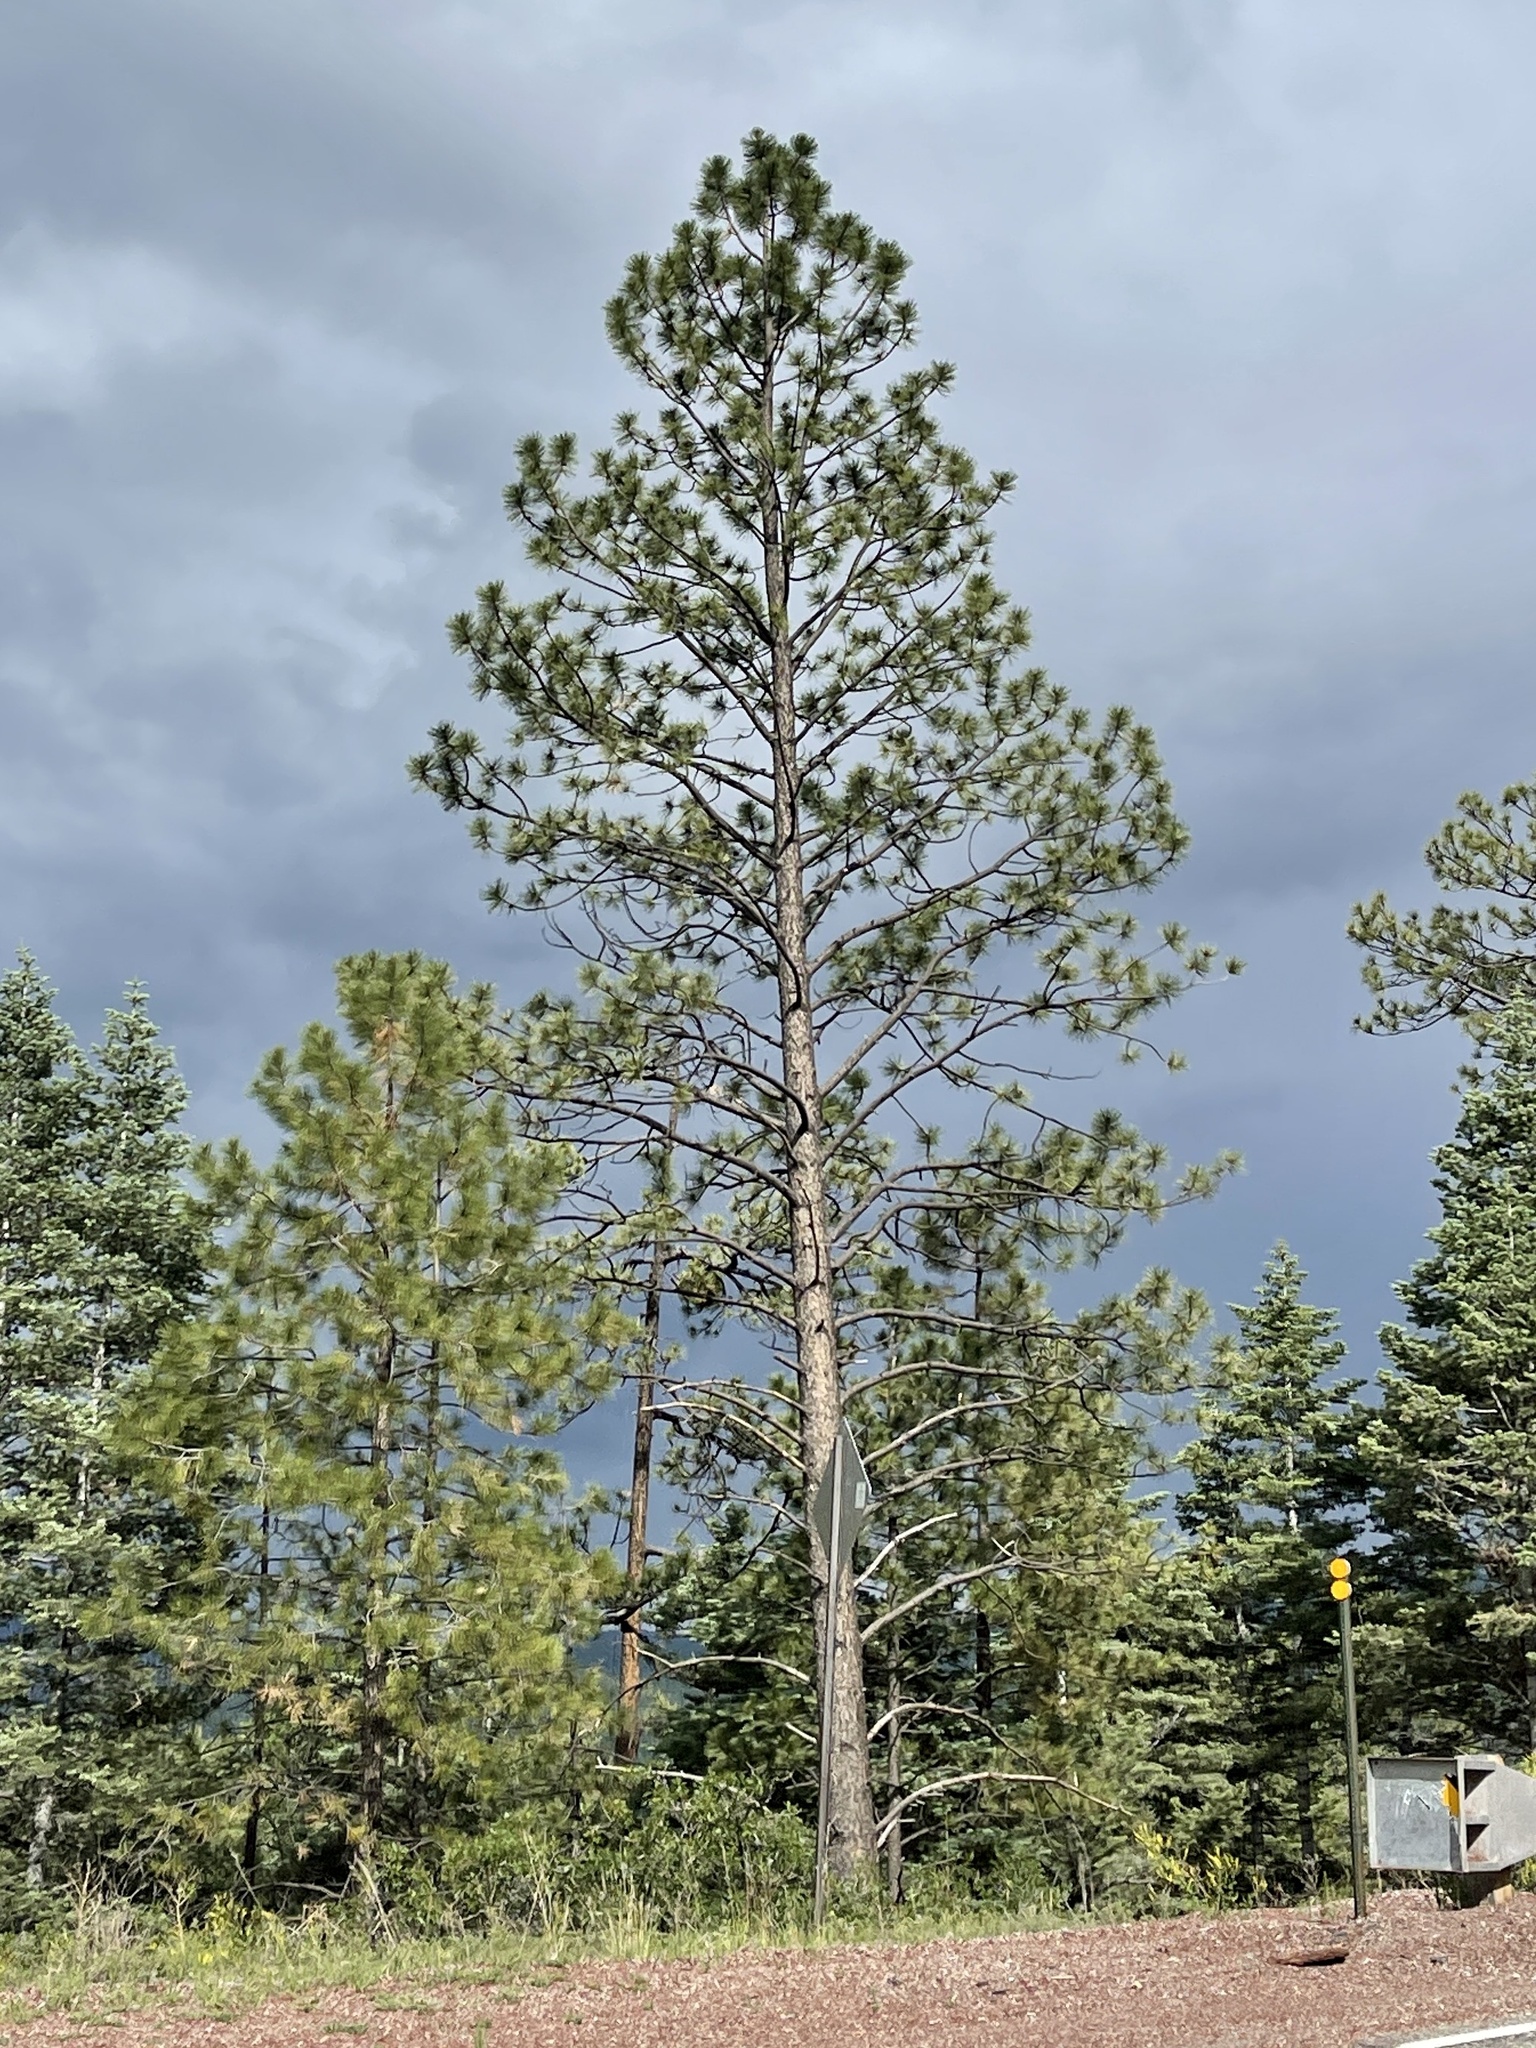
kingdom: Plantae
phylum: Tracheophyta
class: Pinopsida
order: Pinales
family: Pinaceae
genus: Pinus
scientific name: Pinus ponderosa
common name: Western yellow-pine
